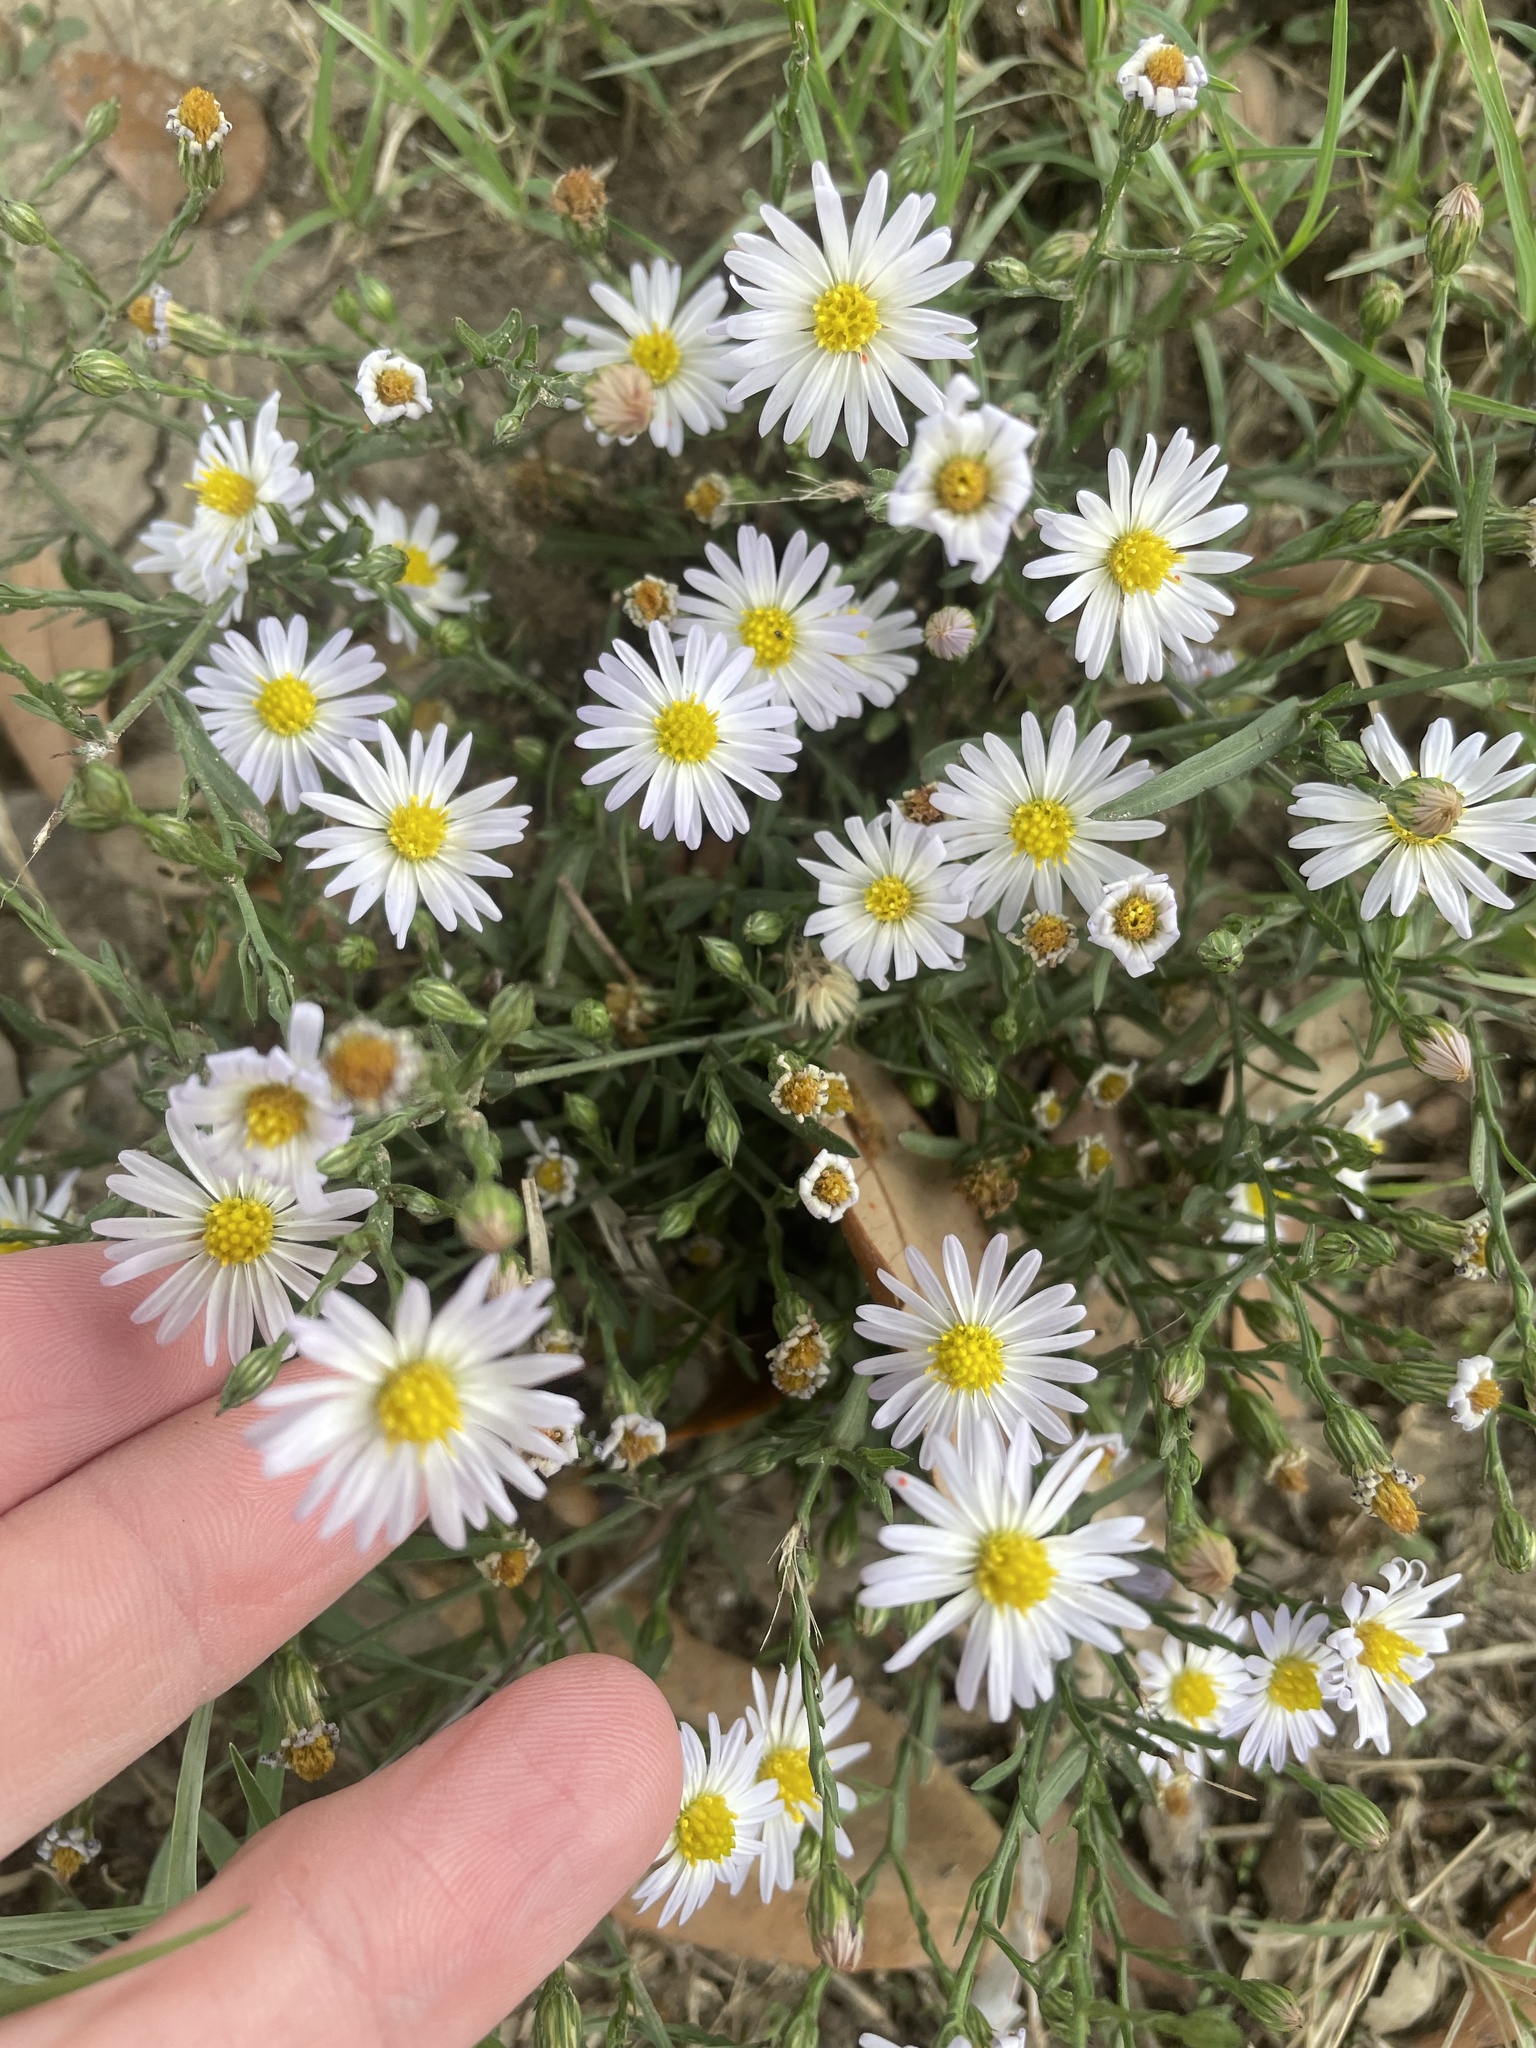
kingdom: Plantae
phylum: Tracheophyta
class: Magnoliopsida
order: Asterales
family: Asteraceae
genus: Symphyotrichum
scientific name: Symphyotrichum divaricatum
